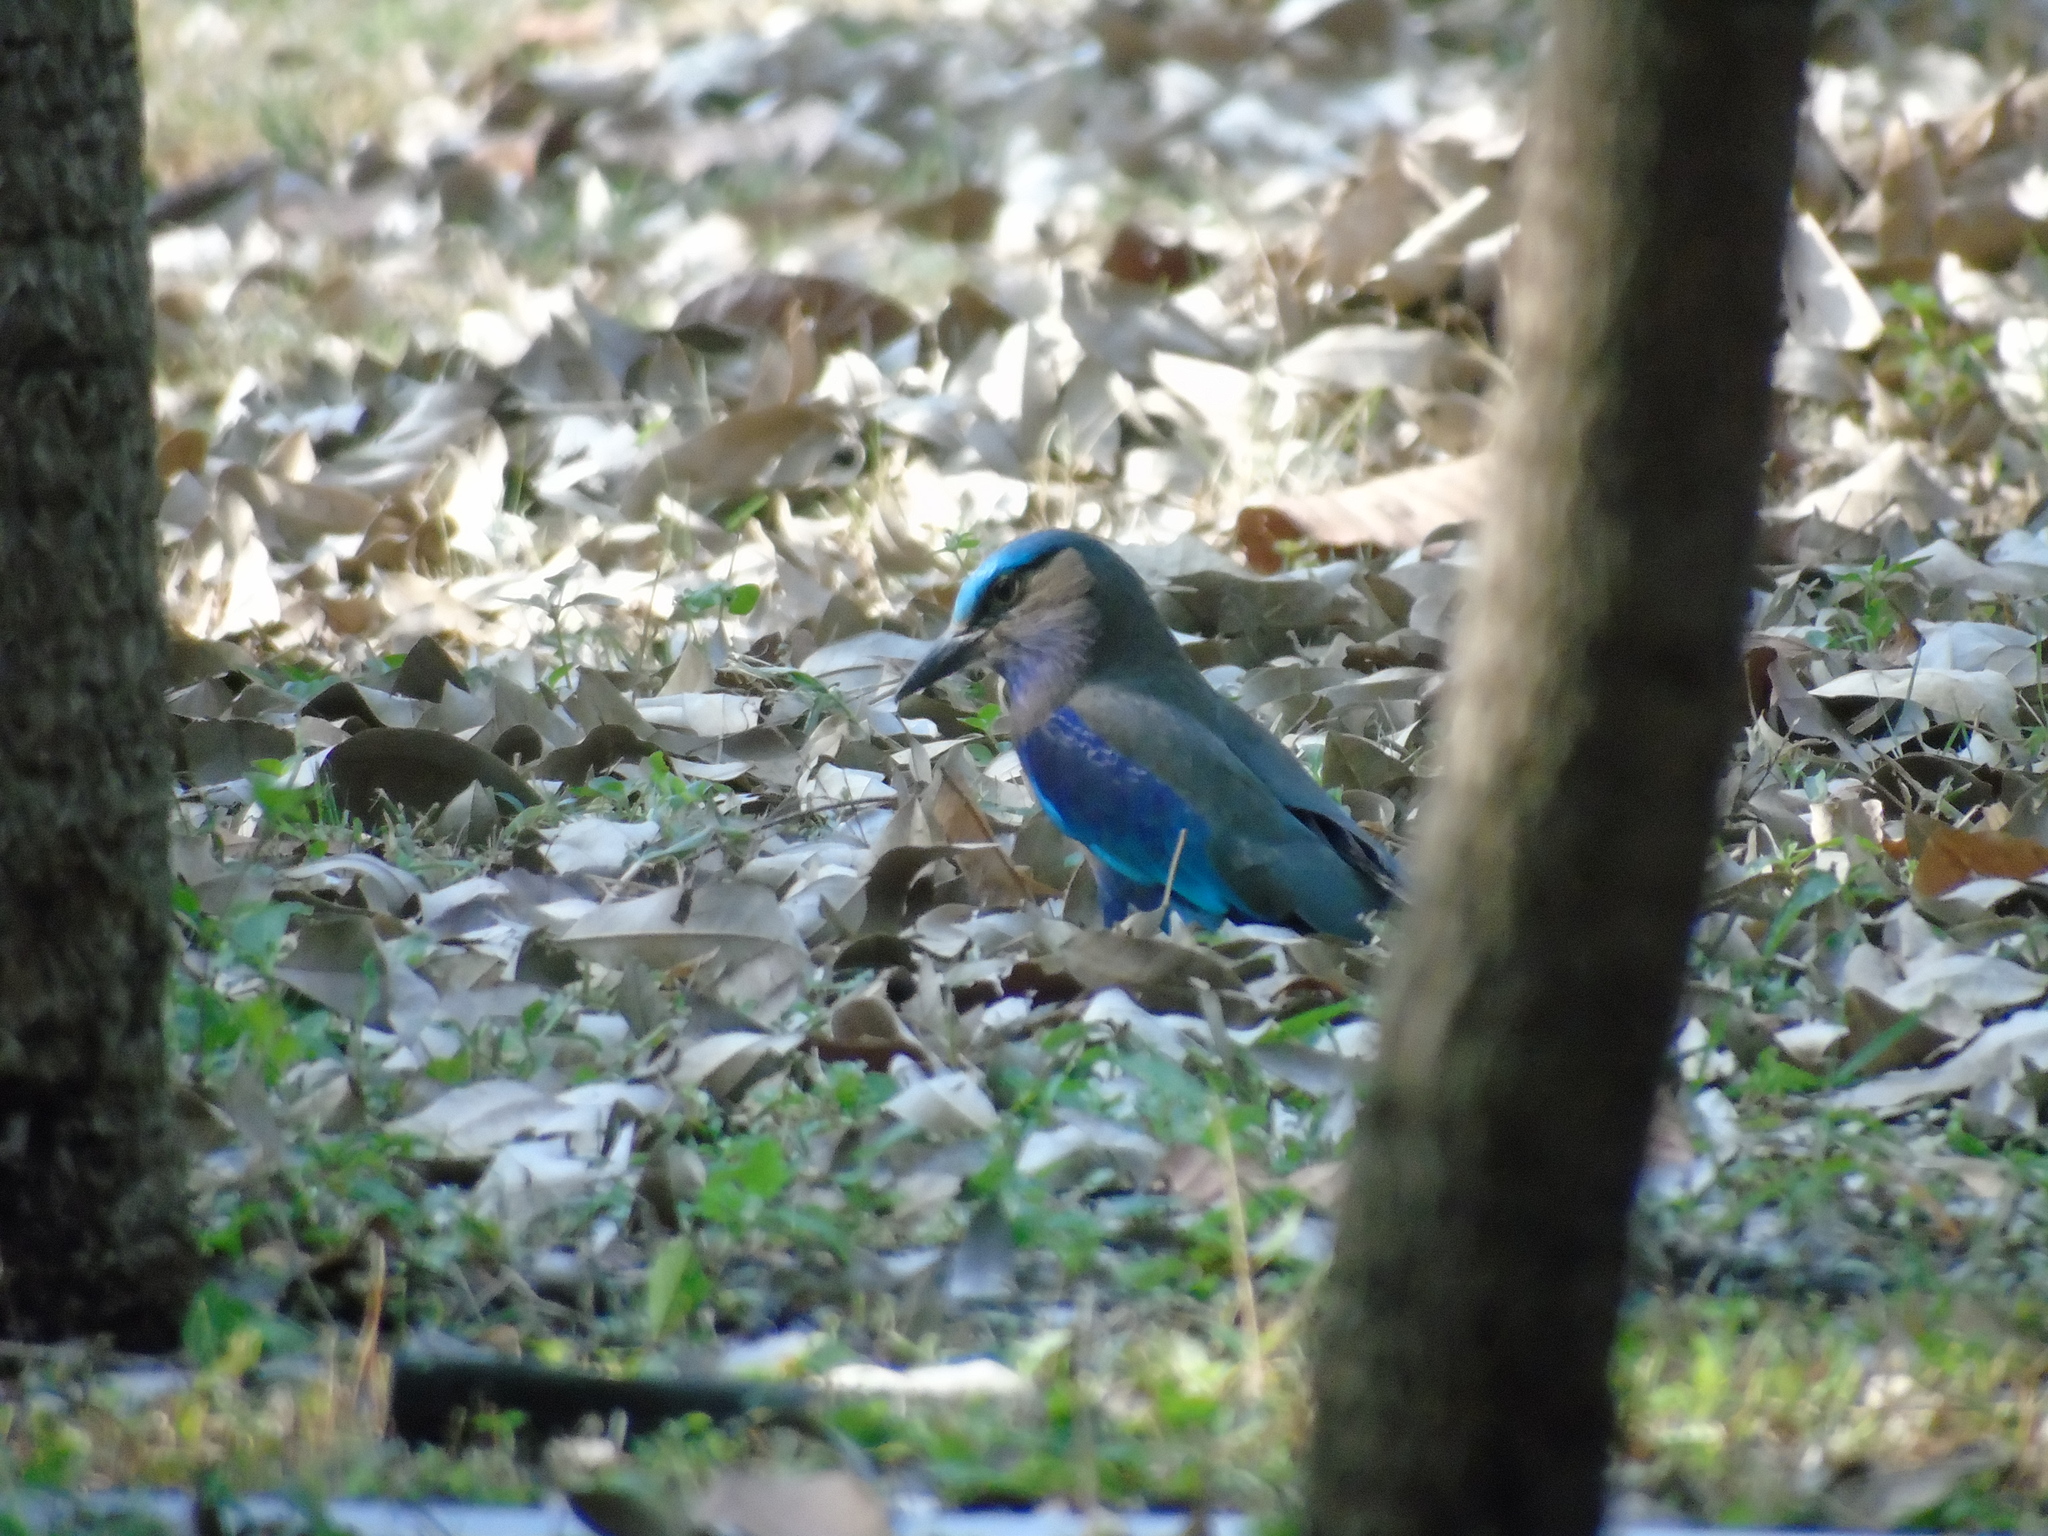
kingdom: Animalia
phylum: Chordata
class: Aves
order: Coraciiformes
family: Coraciidae
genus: Coracias
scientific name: Coracias affinis
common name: Indochinese roller
